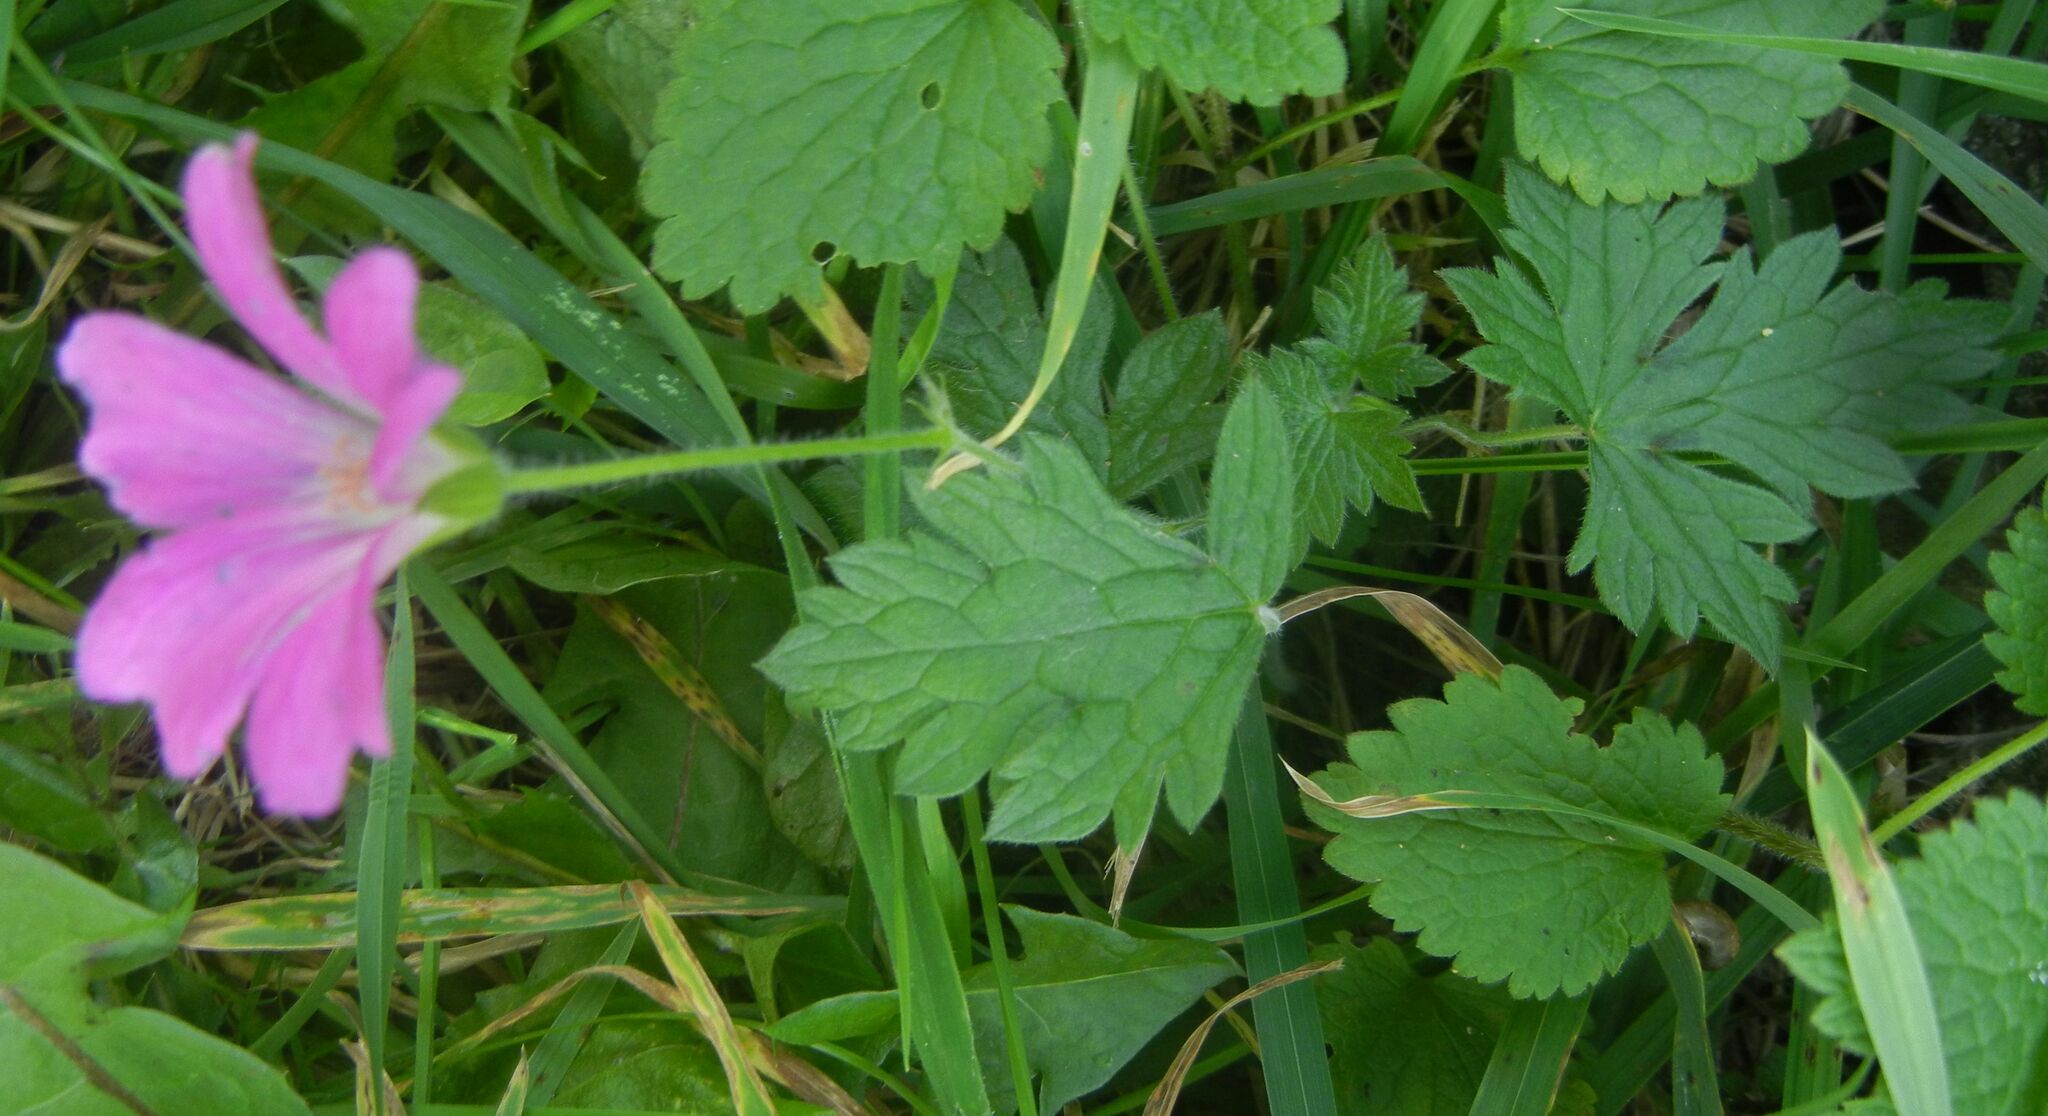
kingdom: Plantae
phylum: Tracheophyta
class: Magnoliopsida
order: Geraniales
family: Geraniaceae
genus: Geranium
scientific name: Geranium oxonianum
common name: Druce's crane's-bill
